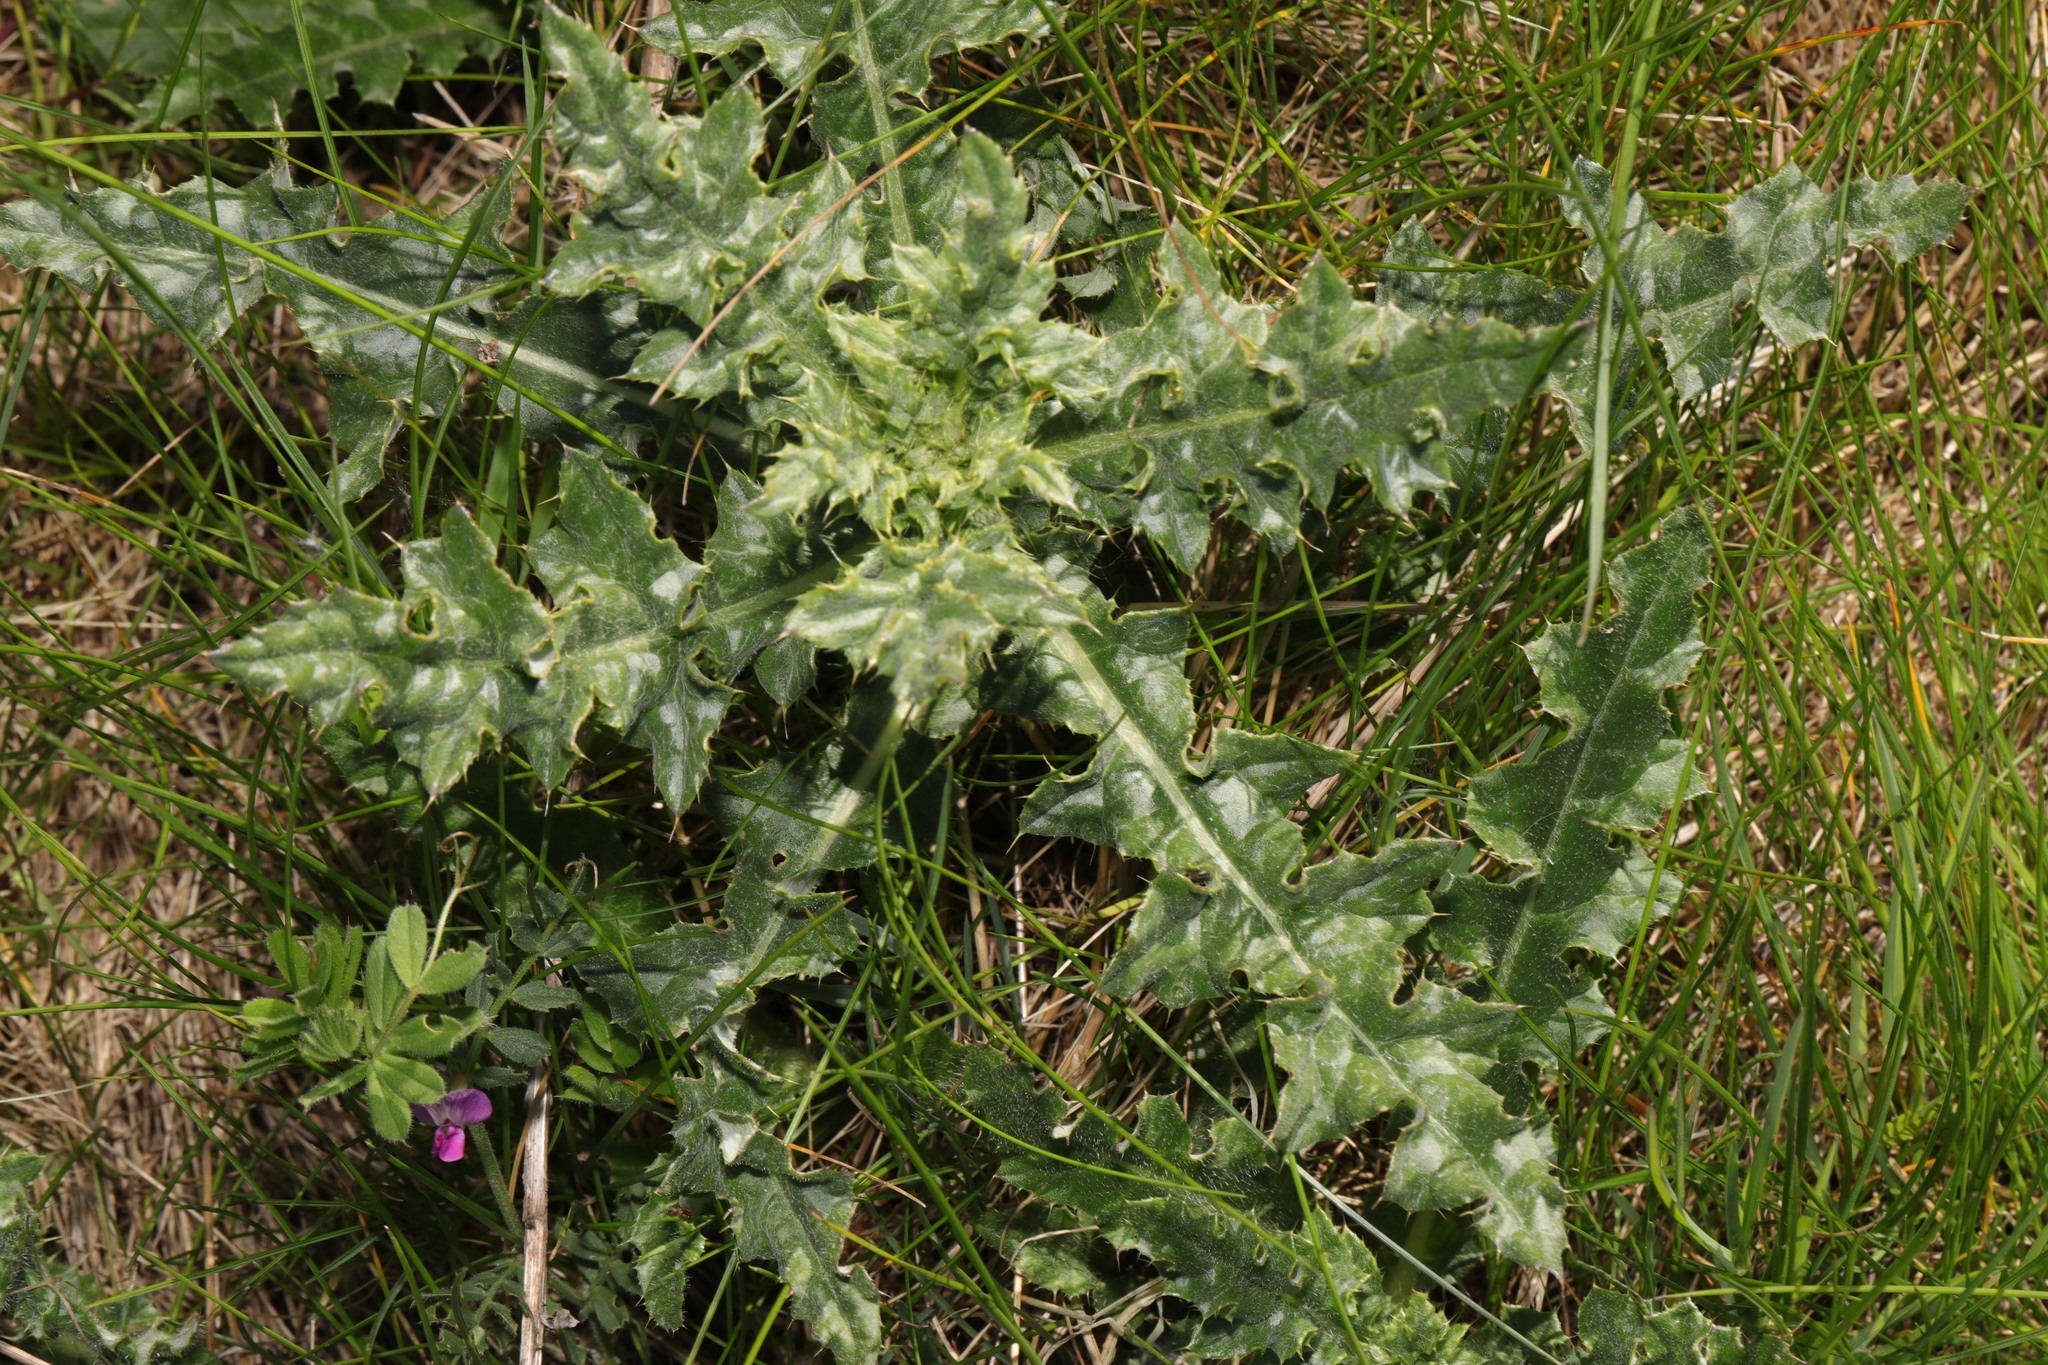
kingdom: Plantae
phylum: Tracheophyta
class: Magnoliopsida
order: Asterales
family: Asteraceae
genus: Cirsium
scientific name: Cirsium arvense
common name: Creeping thistle
